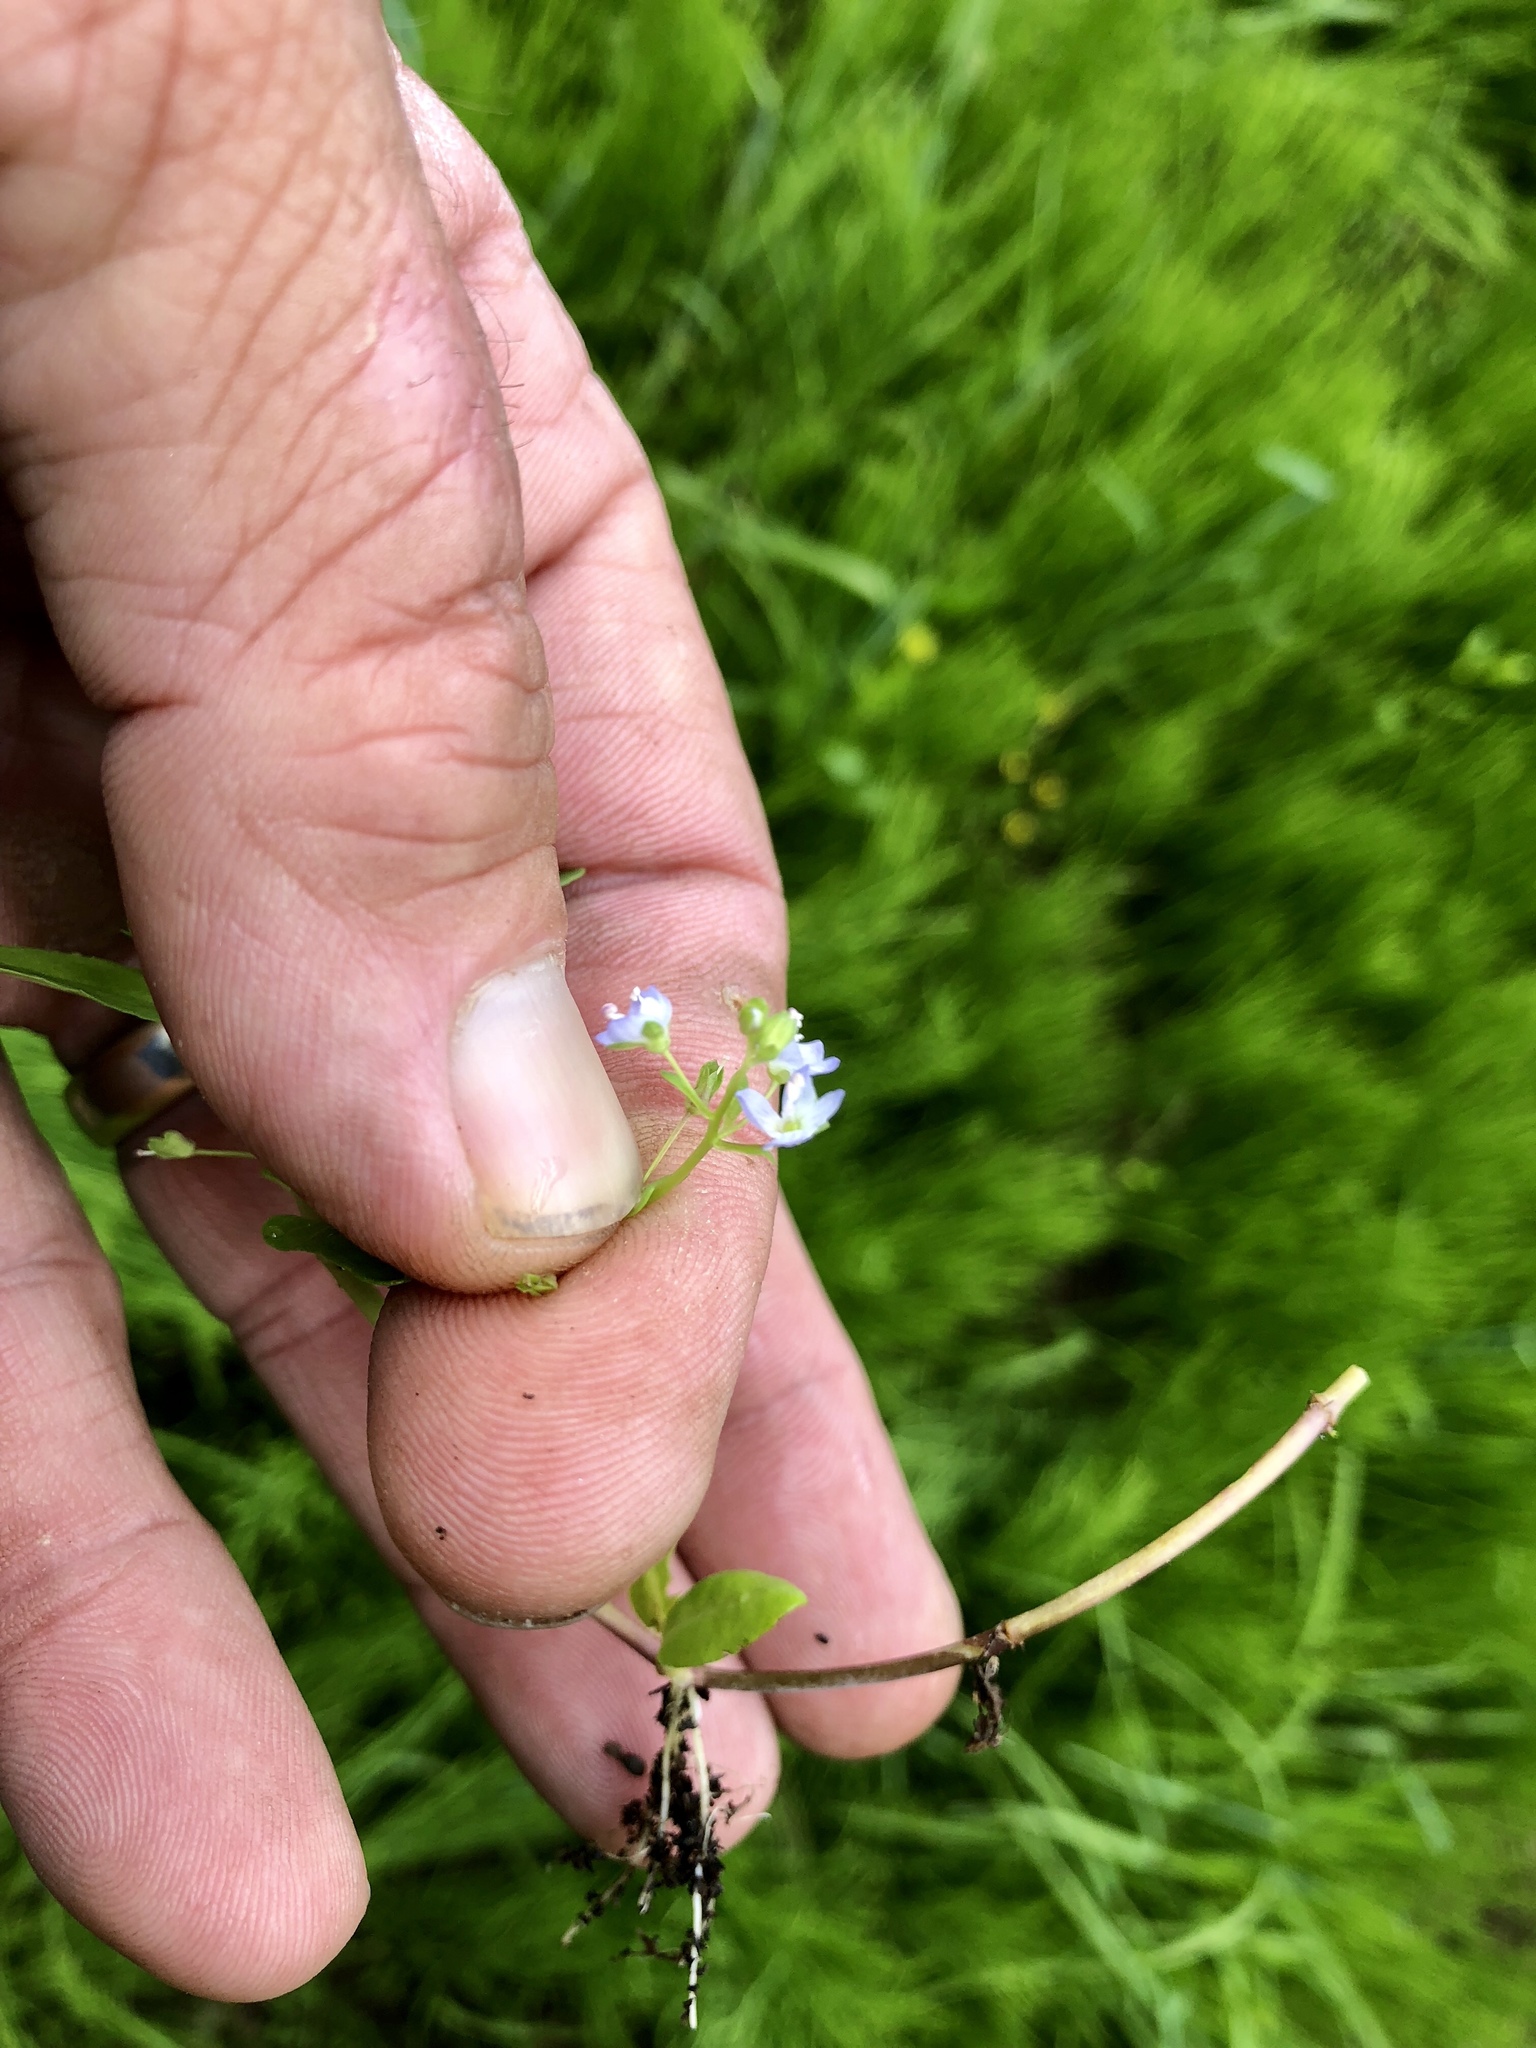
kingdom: Plantae
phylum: Tracheophyta
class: Magnoliopsida
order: Lamiales
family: Plantaginaceae
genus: Veronica
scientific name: Veronica americana
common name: American brooklime
